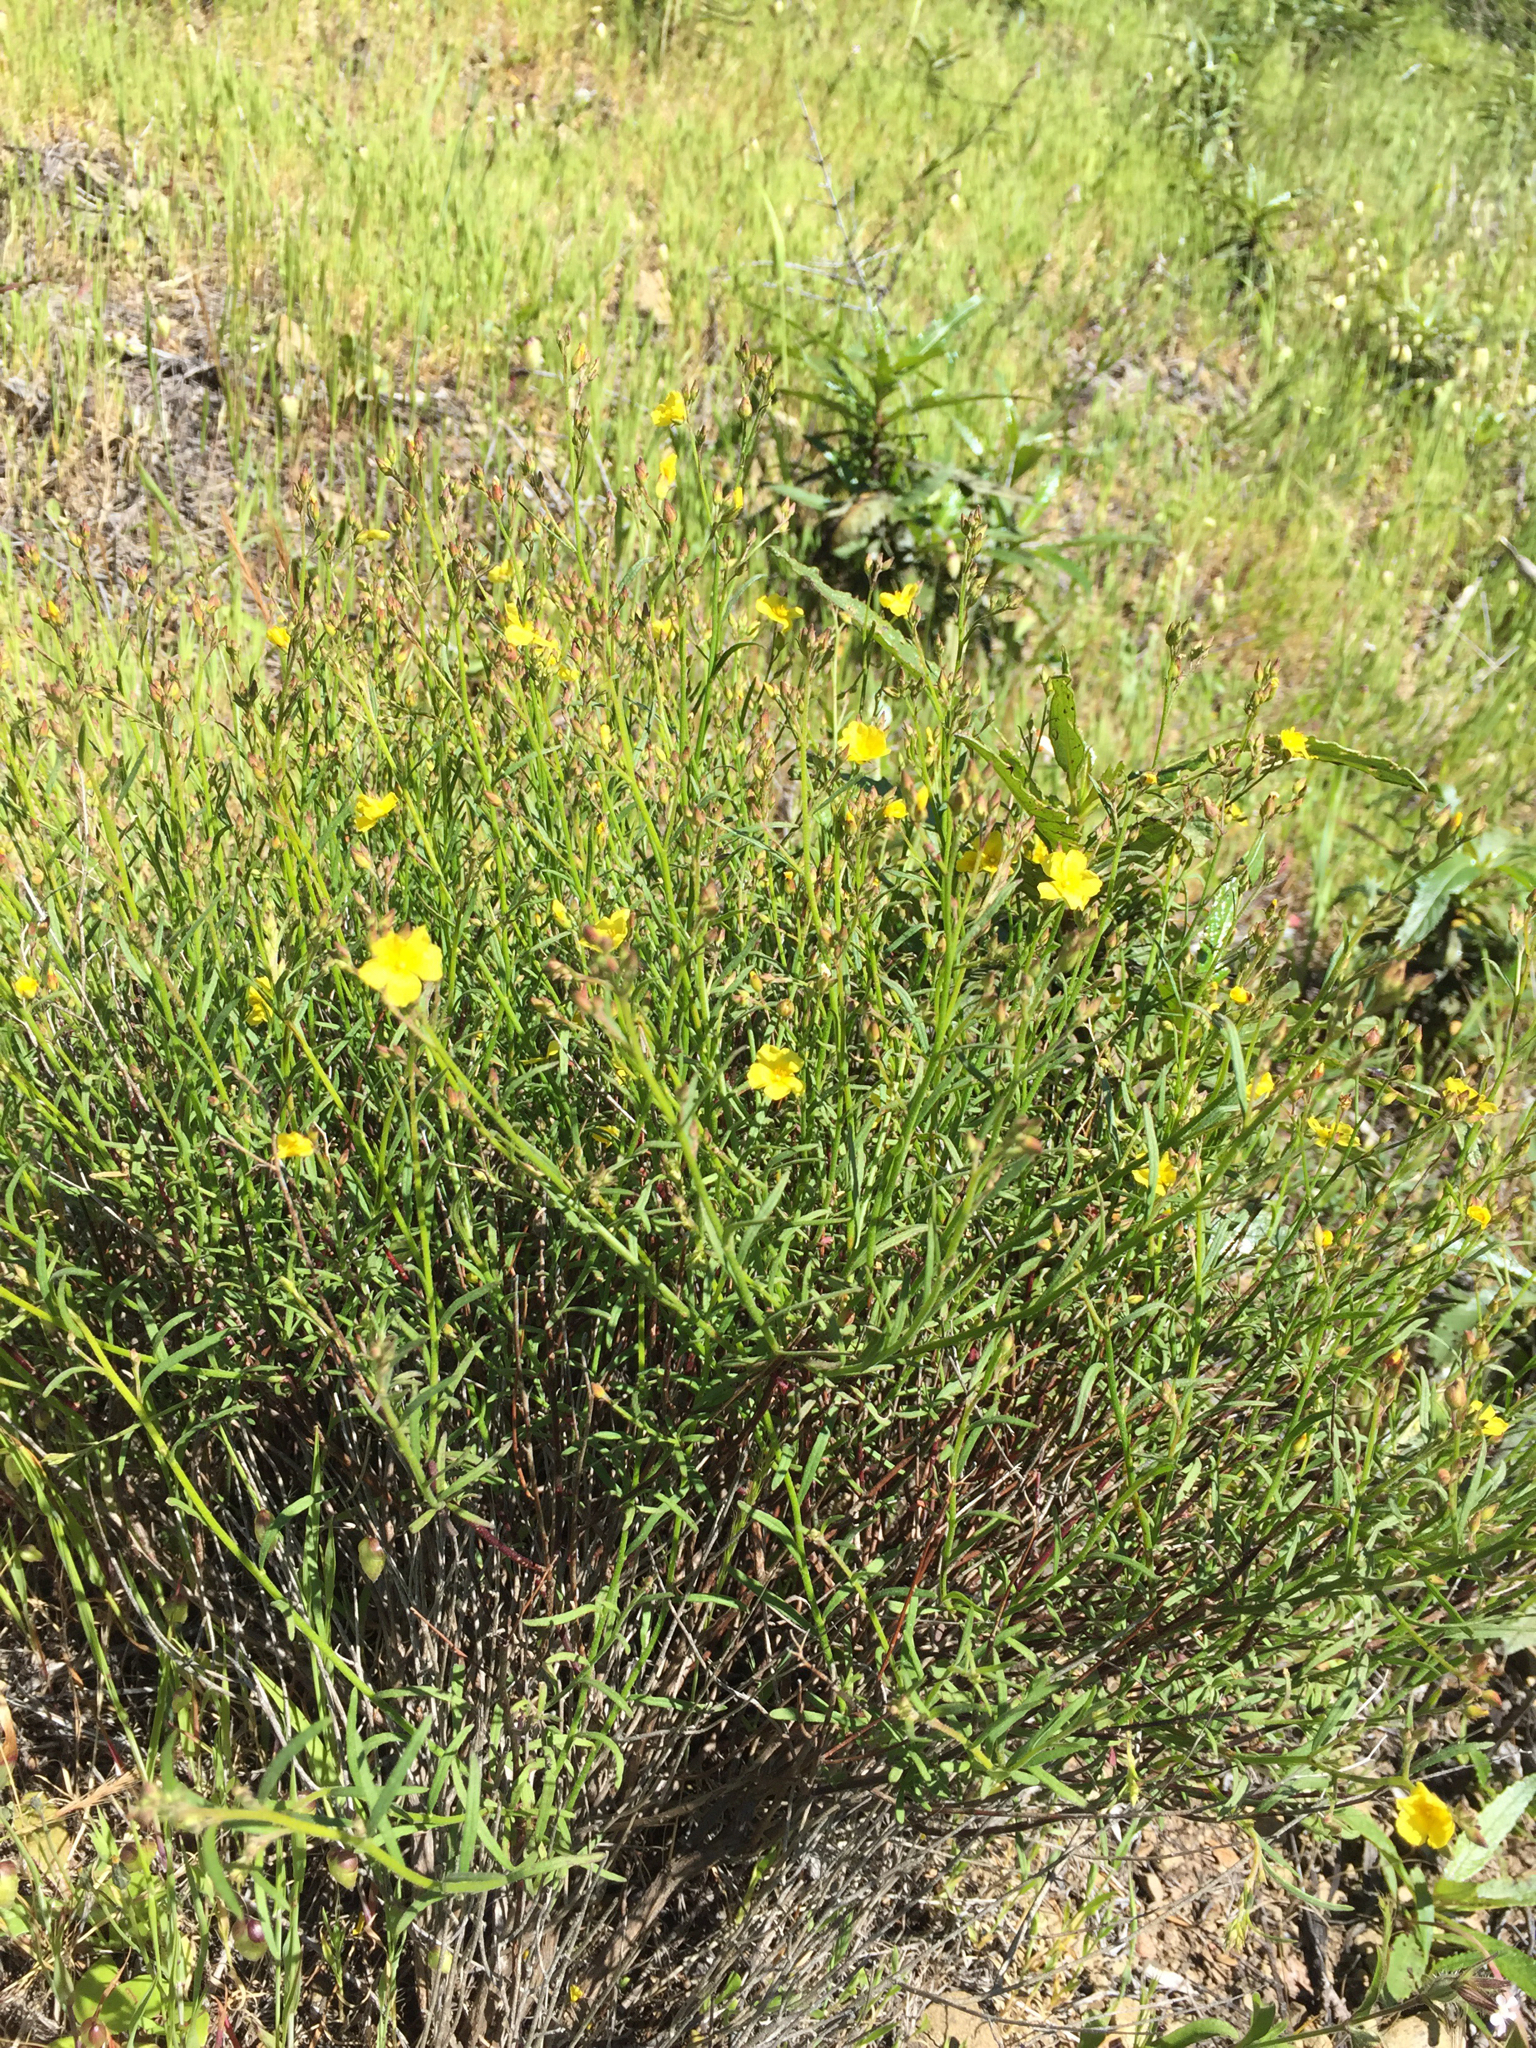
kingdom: Plantae
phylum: Tracheophyta
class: Magnoliopsida
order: Malvales
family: Cistaceae
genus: Crocanthemum
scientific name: Crocanthemum scoparium
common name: Broom-rose
